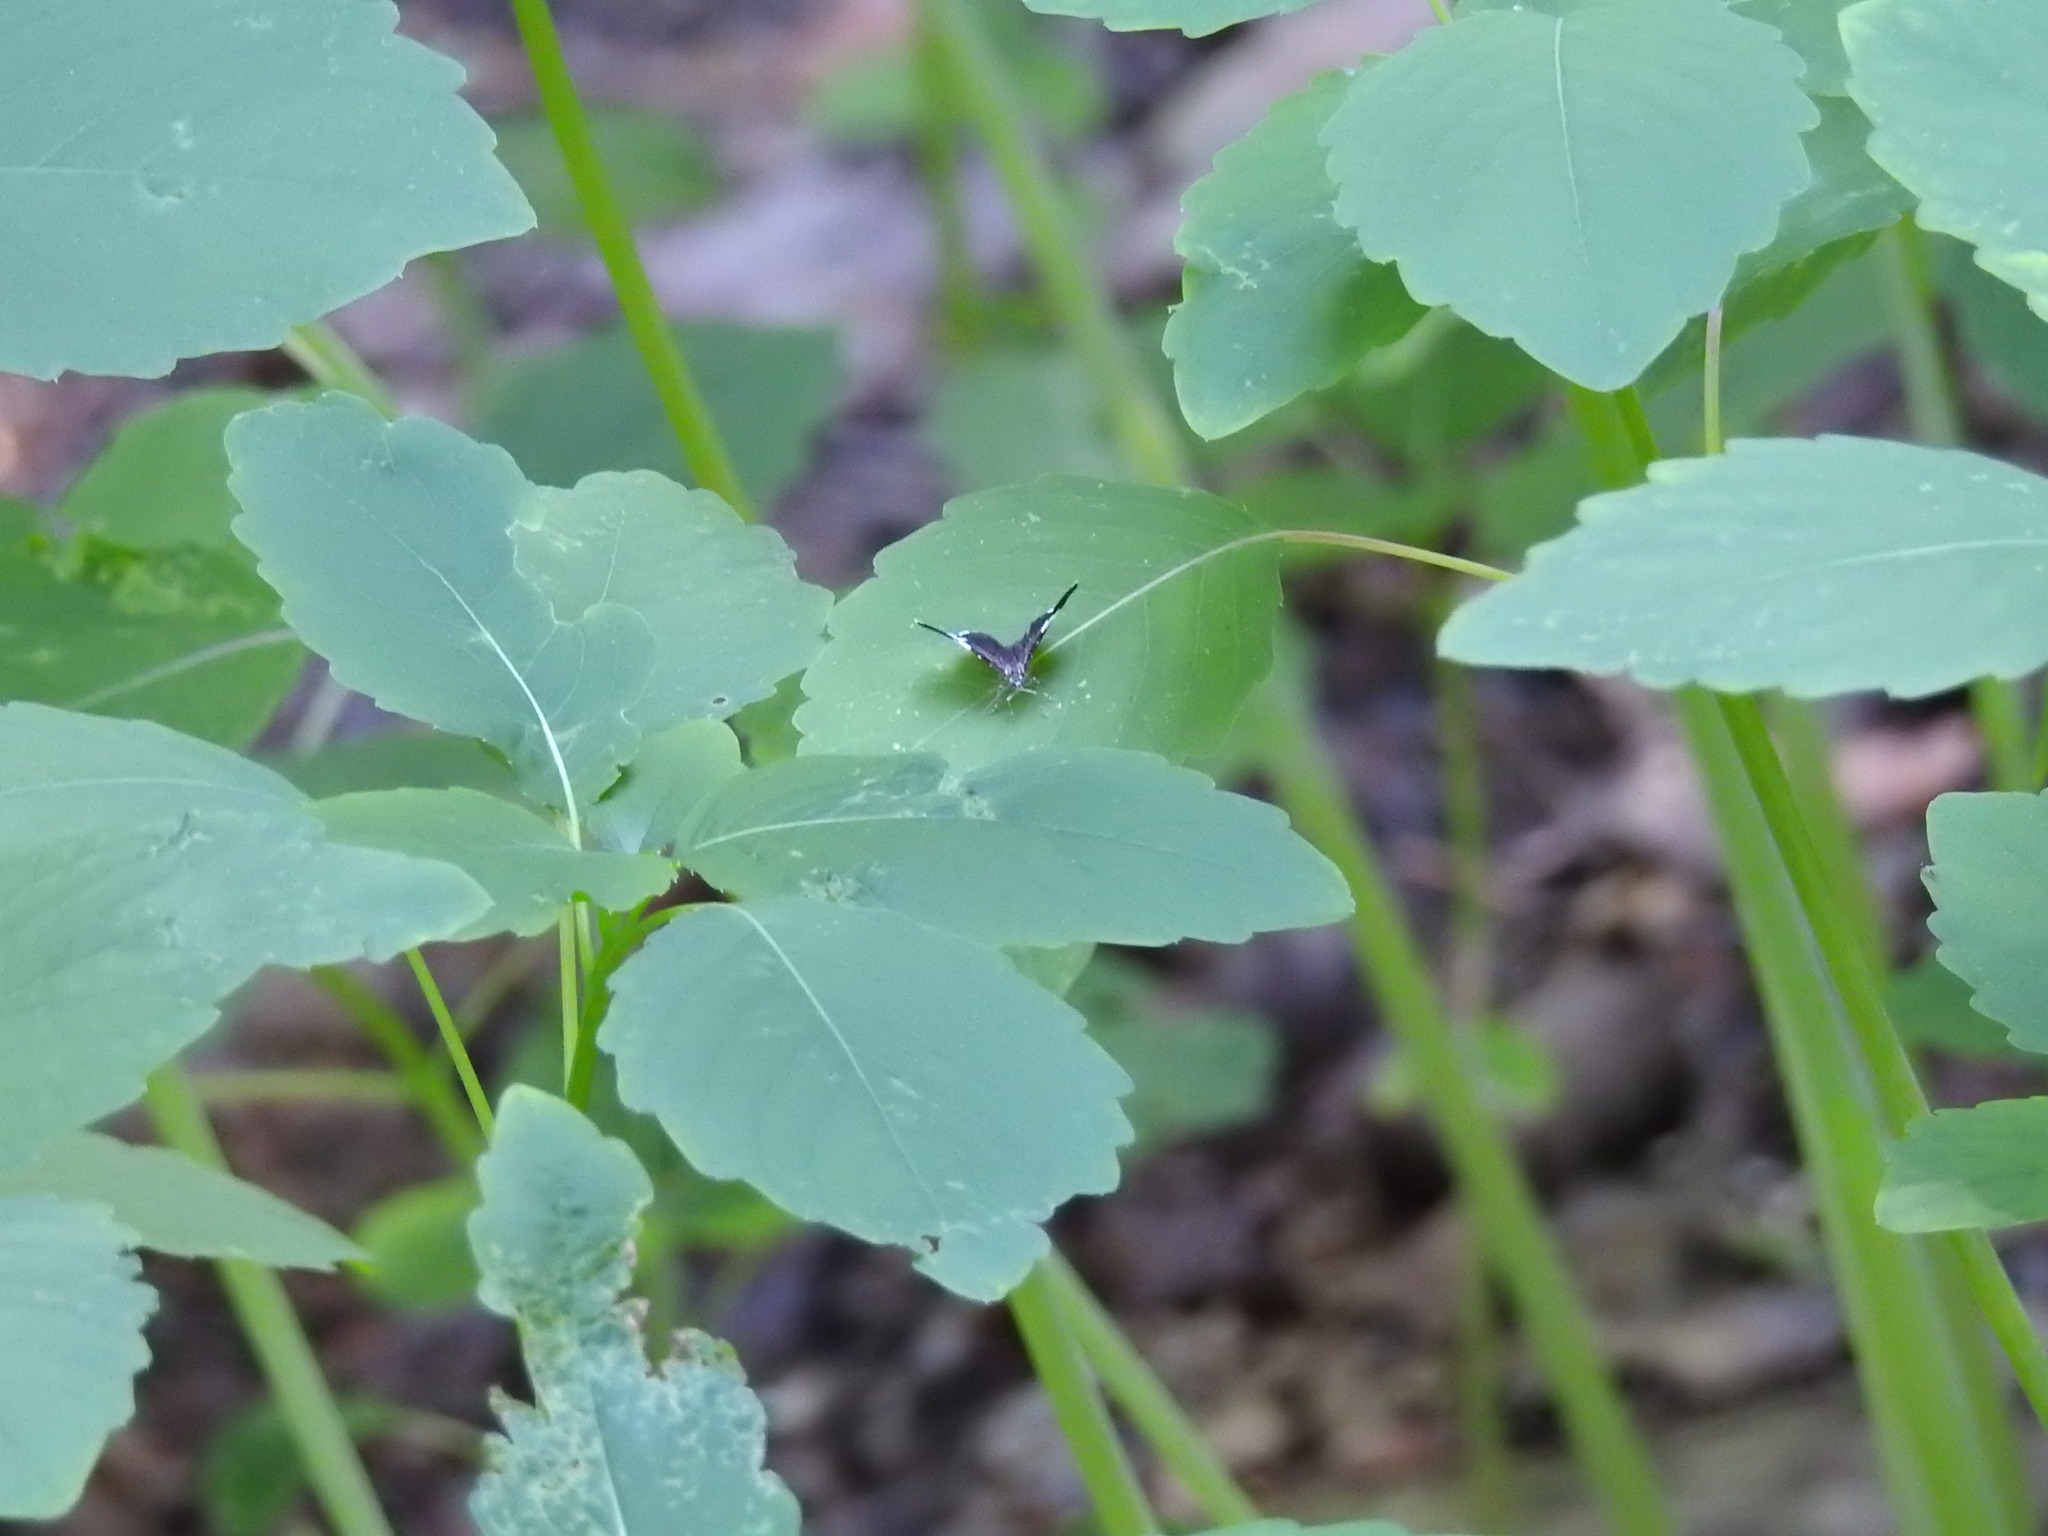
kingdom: Animalia
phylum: Arthropoda
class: Insecta
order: Lepidoptera
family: Geometridae
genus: Trichodezia
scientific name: Trichodezia albovittata
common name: White striped black
